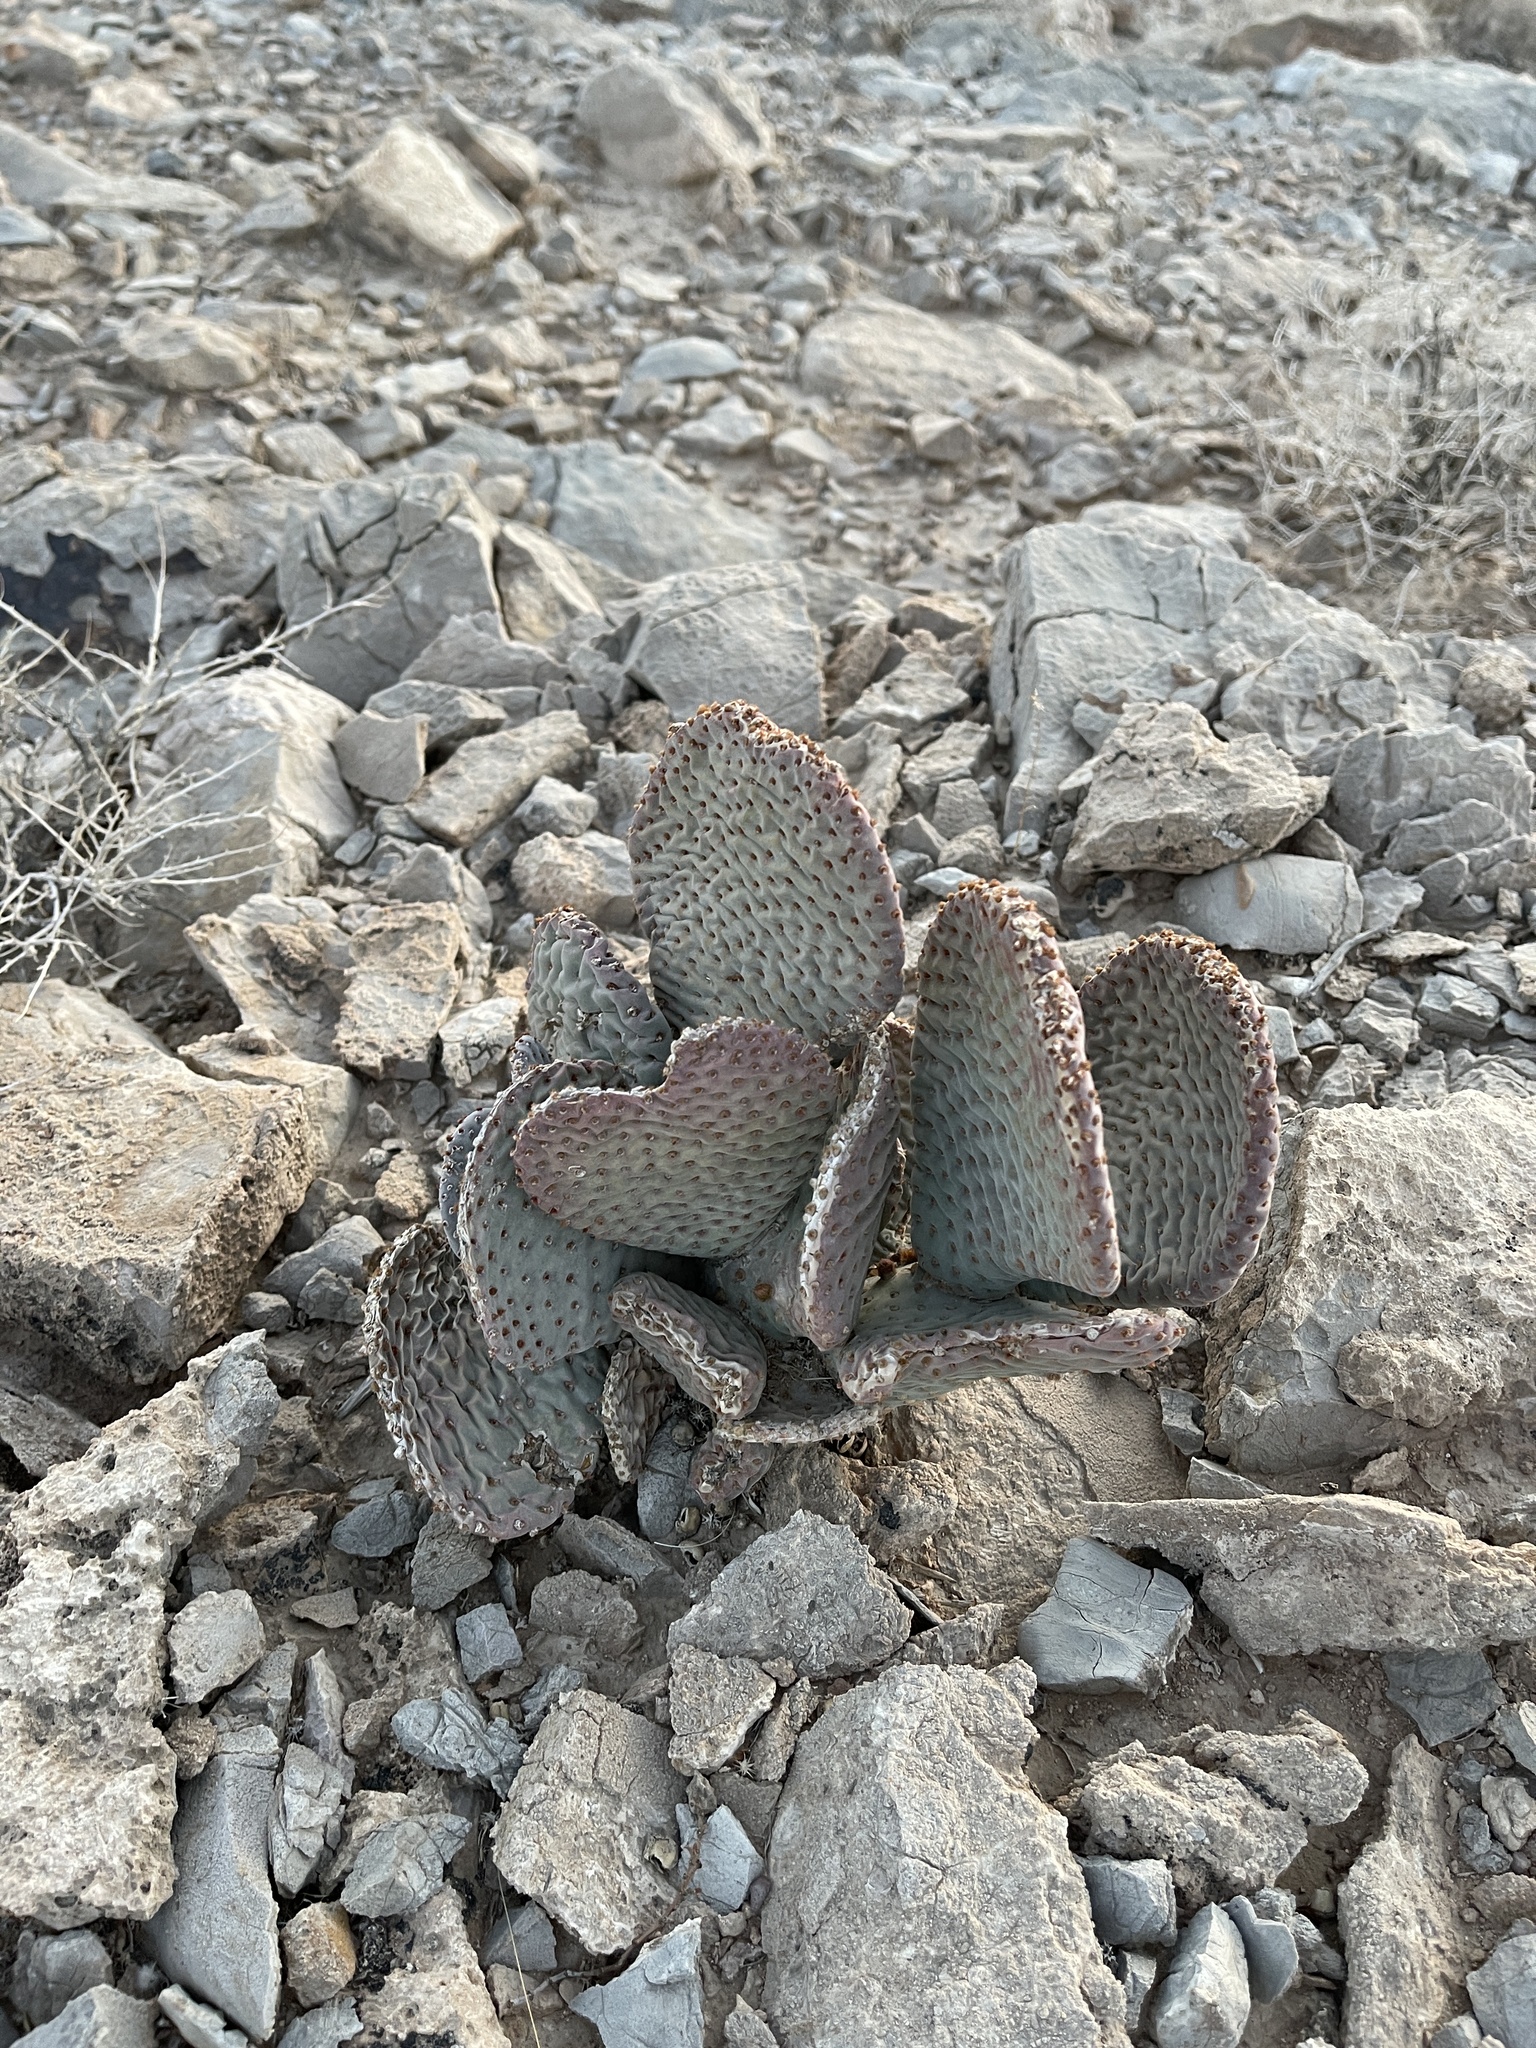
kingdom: Plantae
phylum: Tracheophyta
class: Magnoliopsida
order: Caryophyllales
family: Cactaceae
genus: Opuntia
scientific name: Opuntia basilaris
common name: Beavertail prickly-pear
